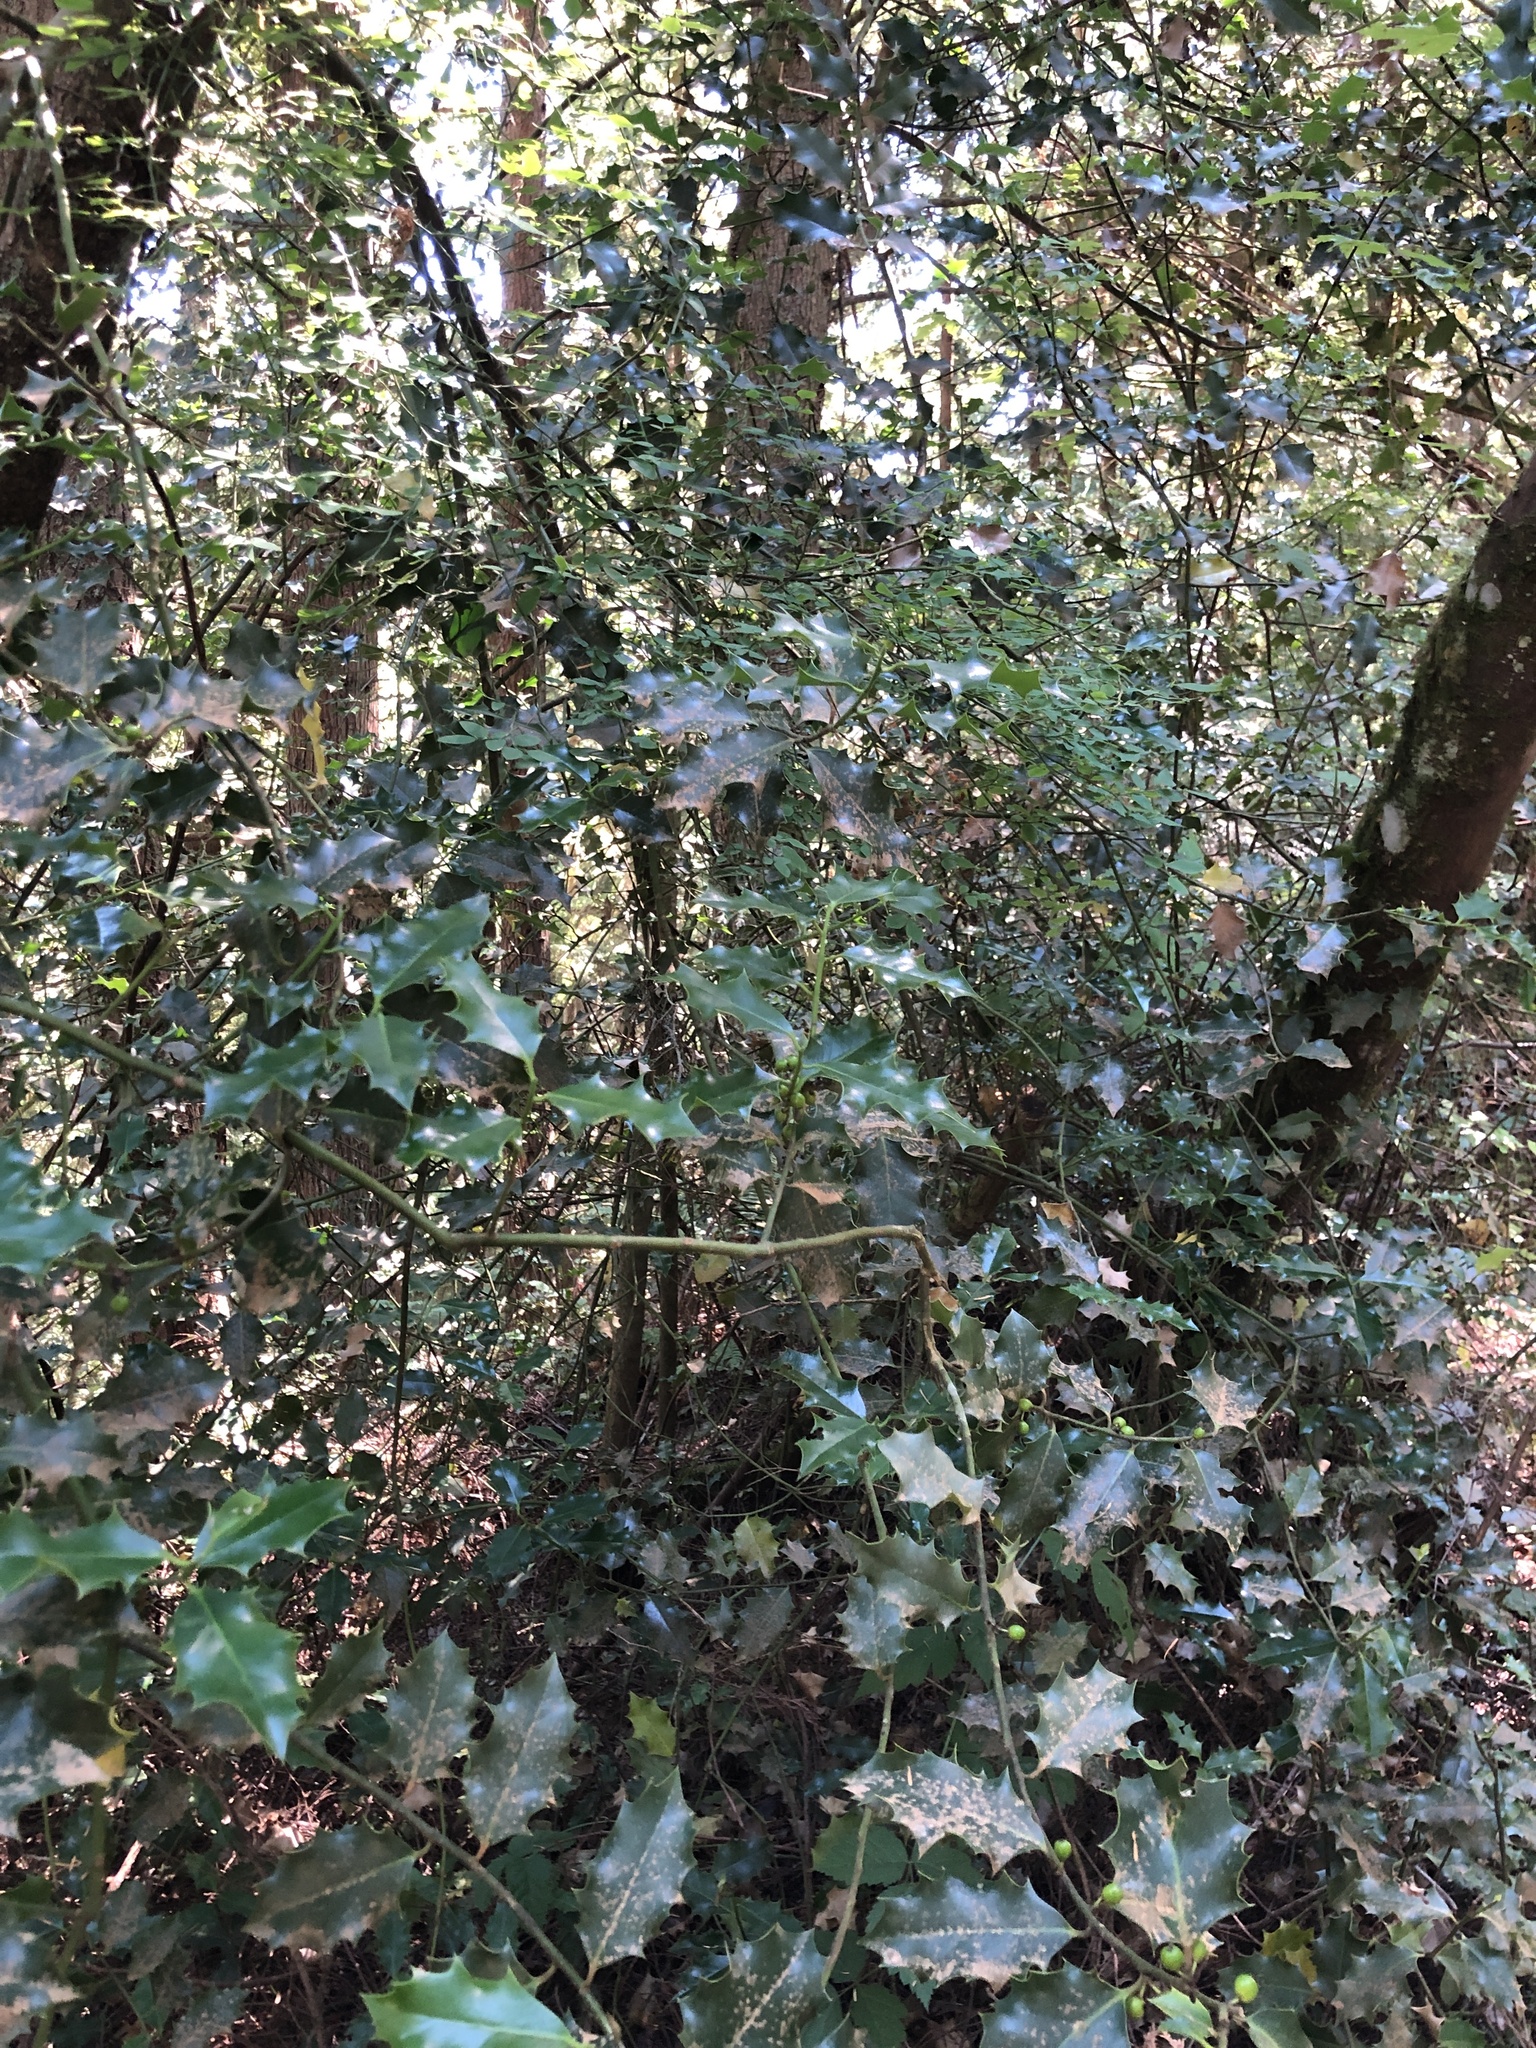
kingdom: Plantae
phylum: Tracheophyta
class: Magnoliopsida
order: Aquifoliales
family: Aquifoliaceae
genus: Ilex
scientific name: Ilex aquifolium
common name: English holly
